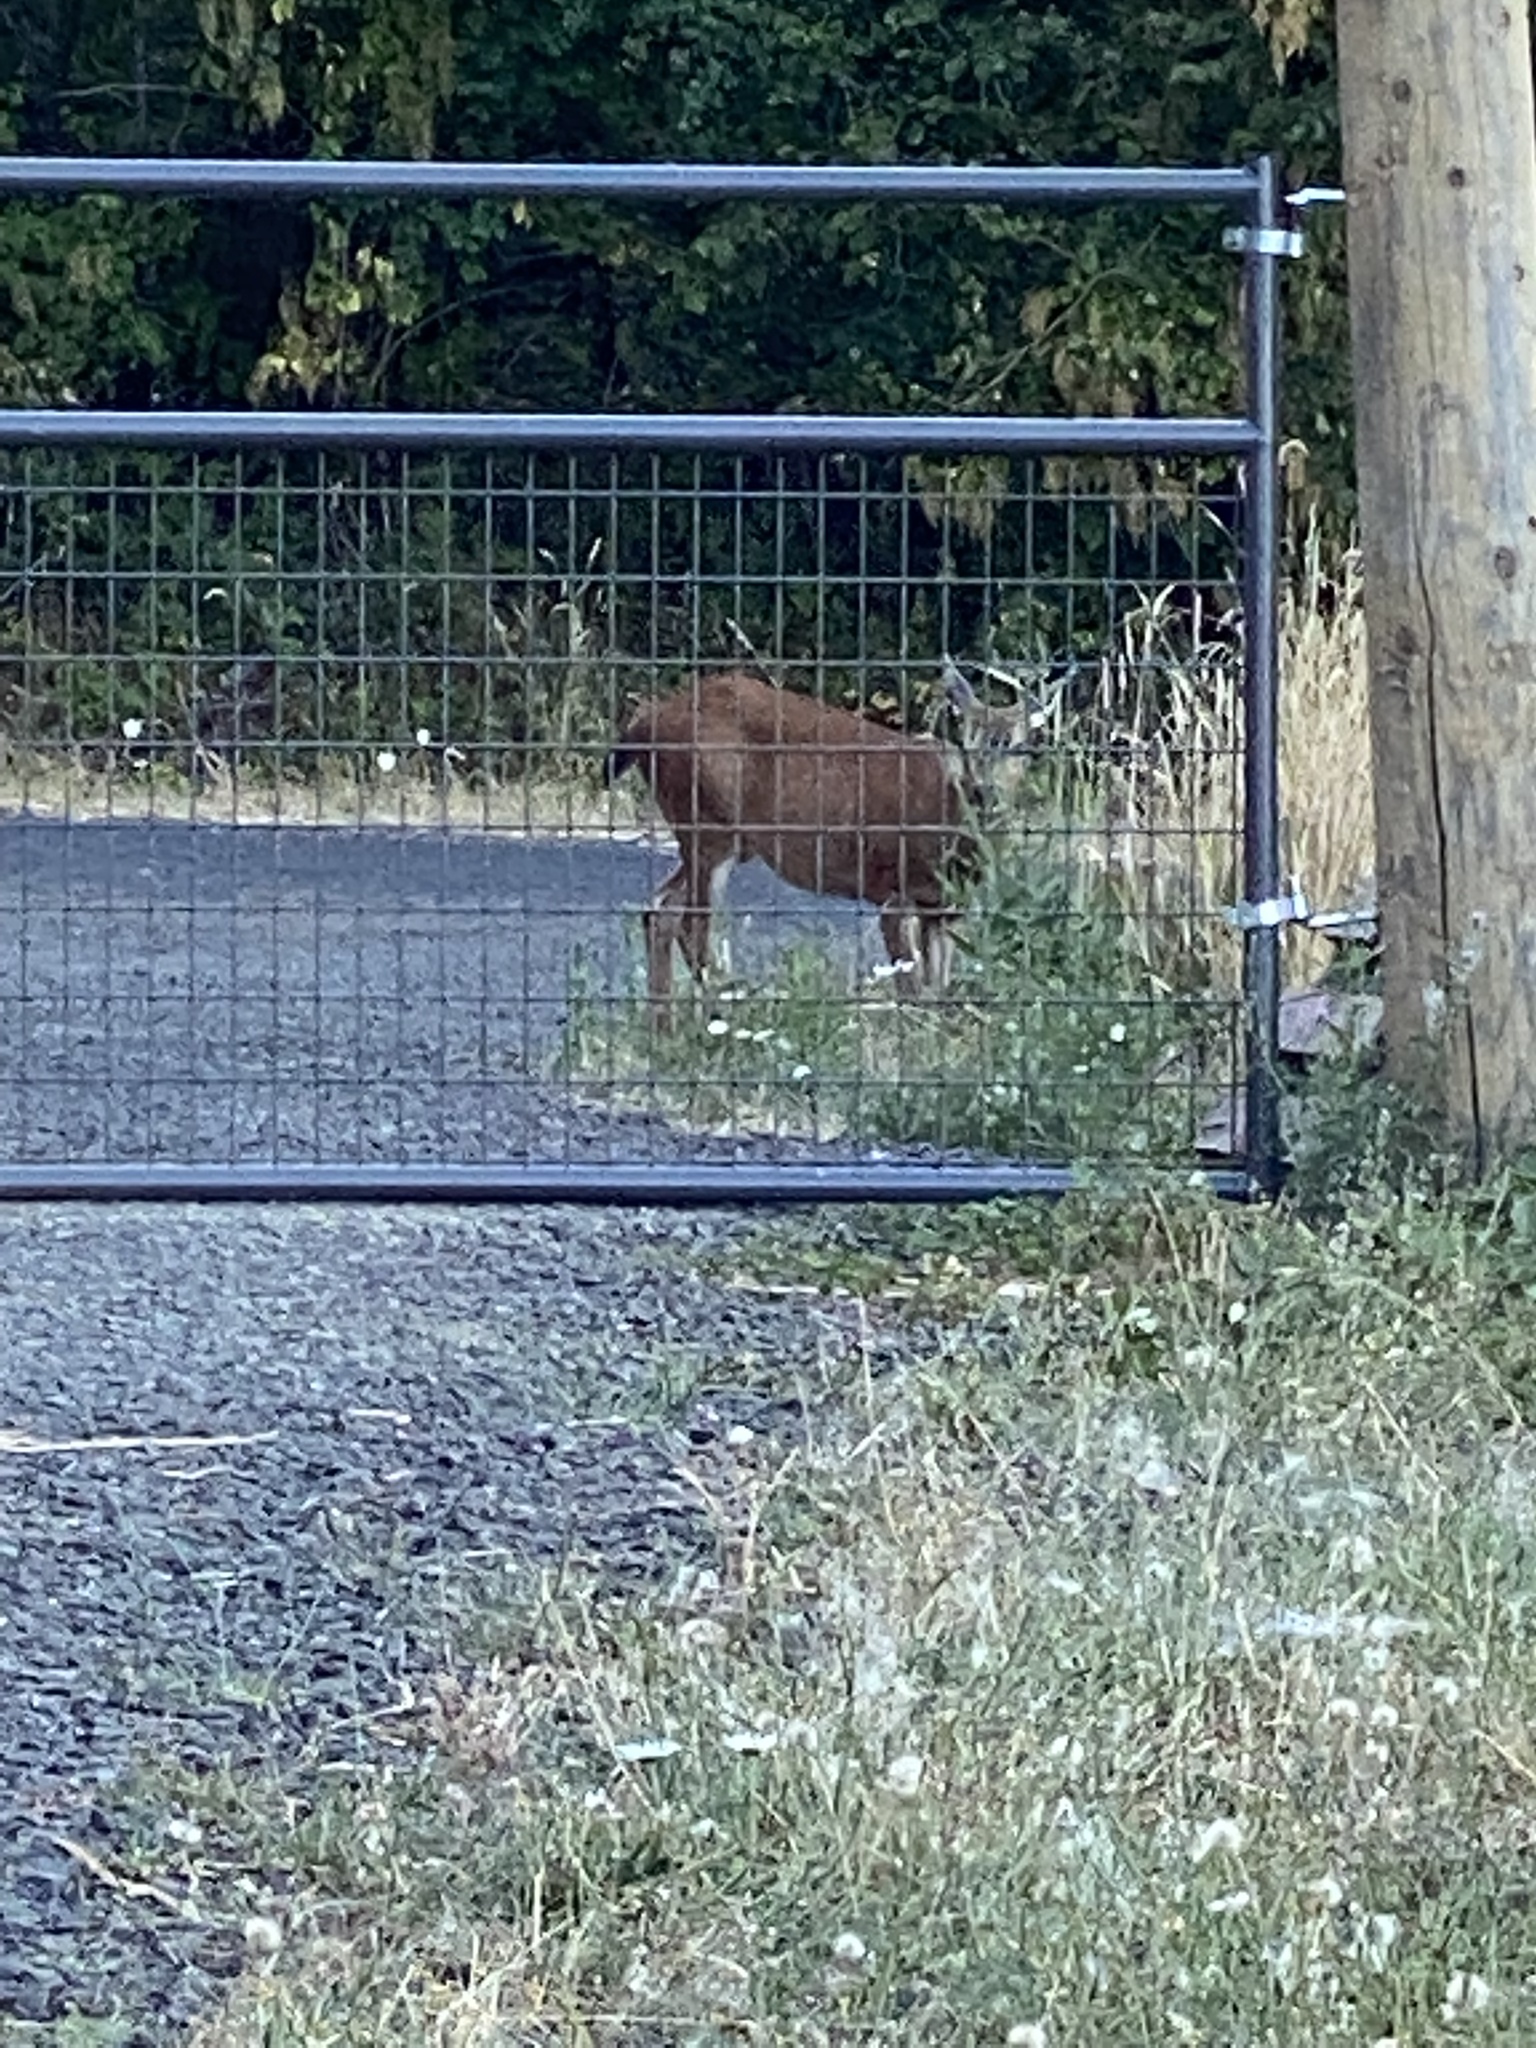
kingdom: Animalia
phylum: Chordata
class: Mammalia
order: Artiodactyla
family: Cervidae
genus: Odocoileus
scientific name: Odocoileus hemionus
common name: Mule deer
